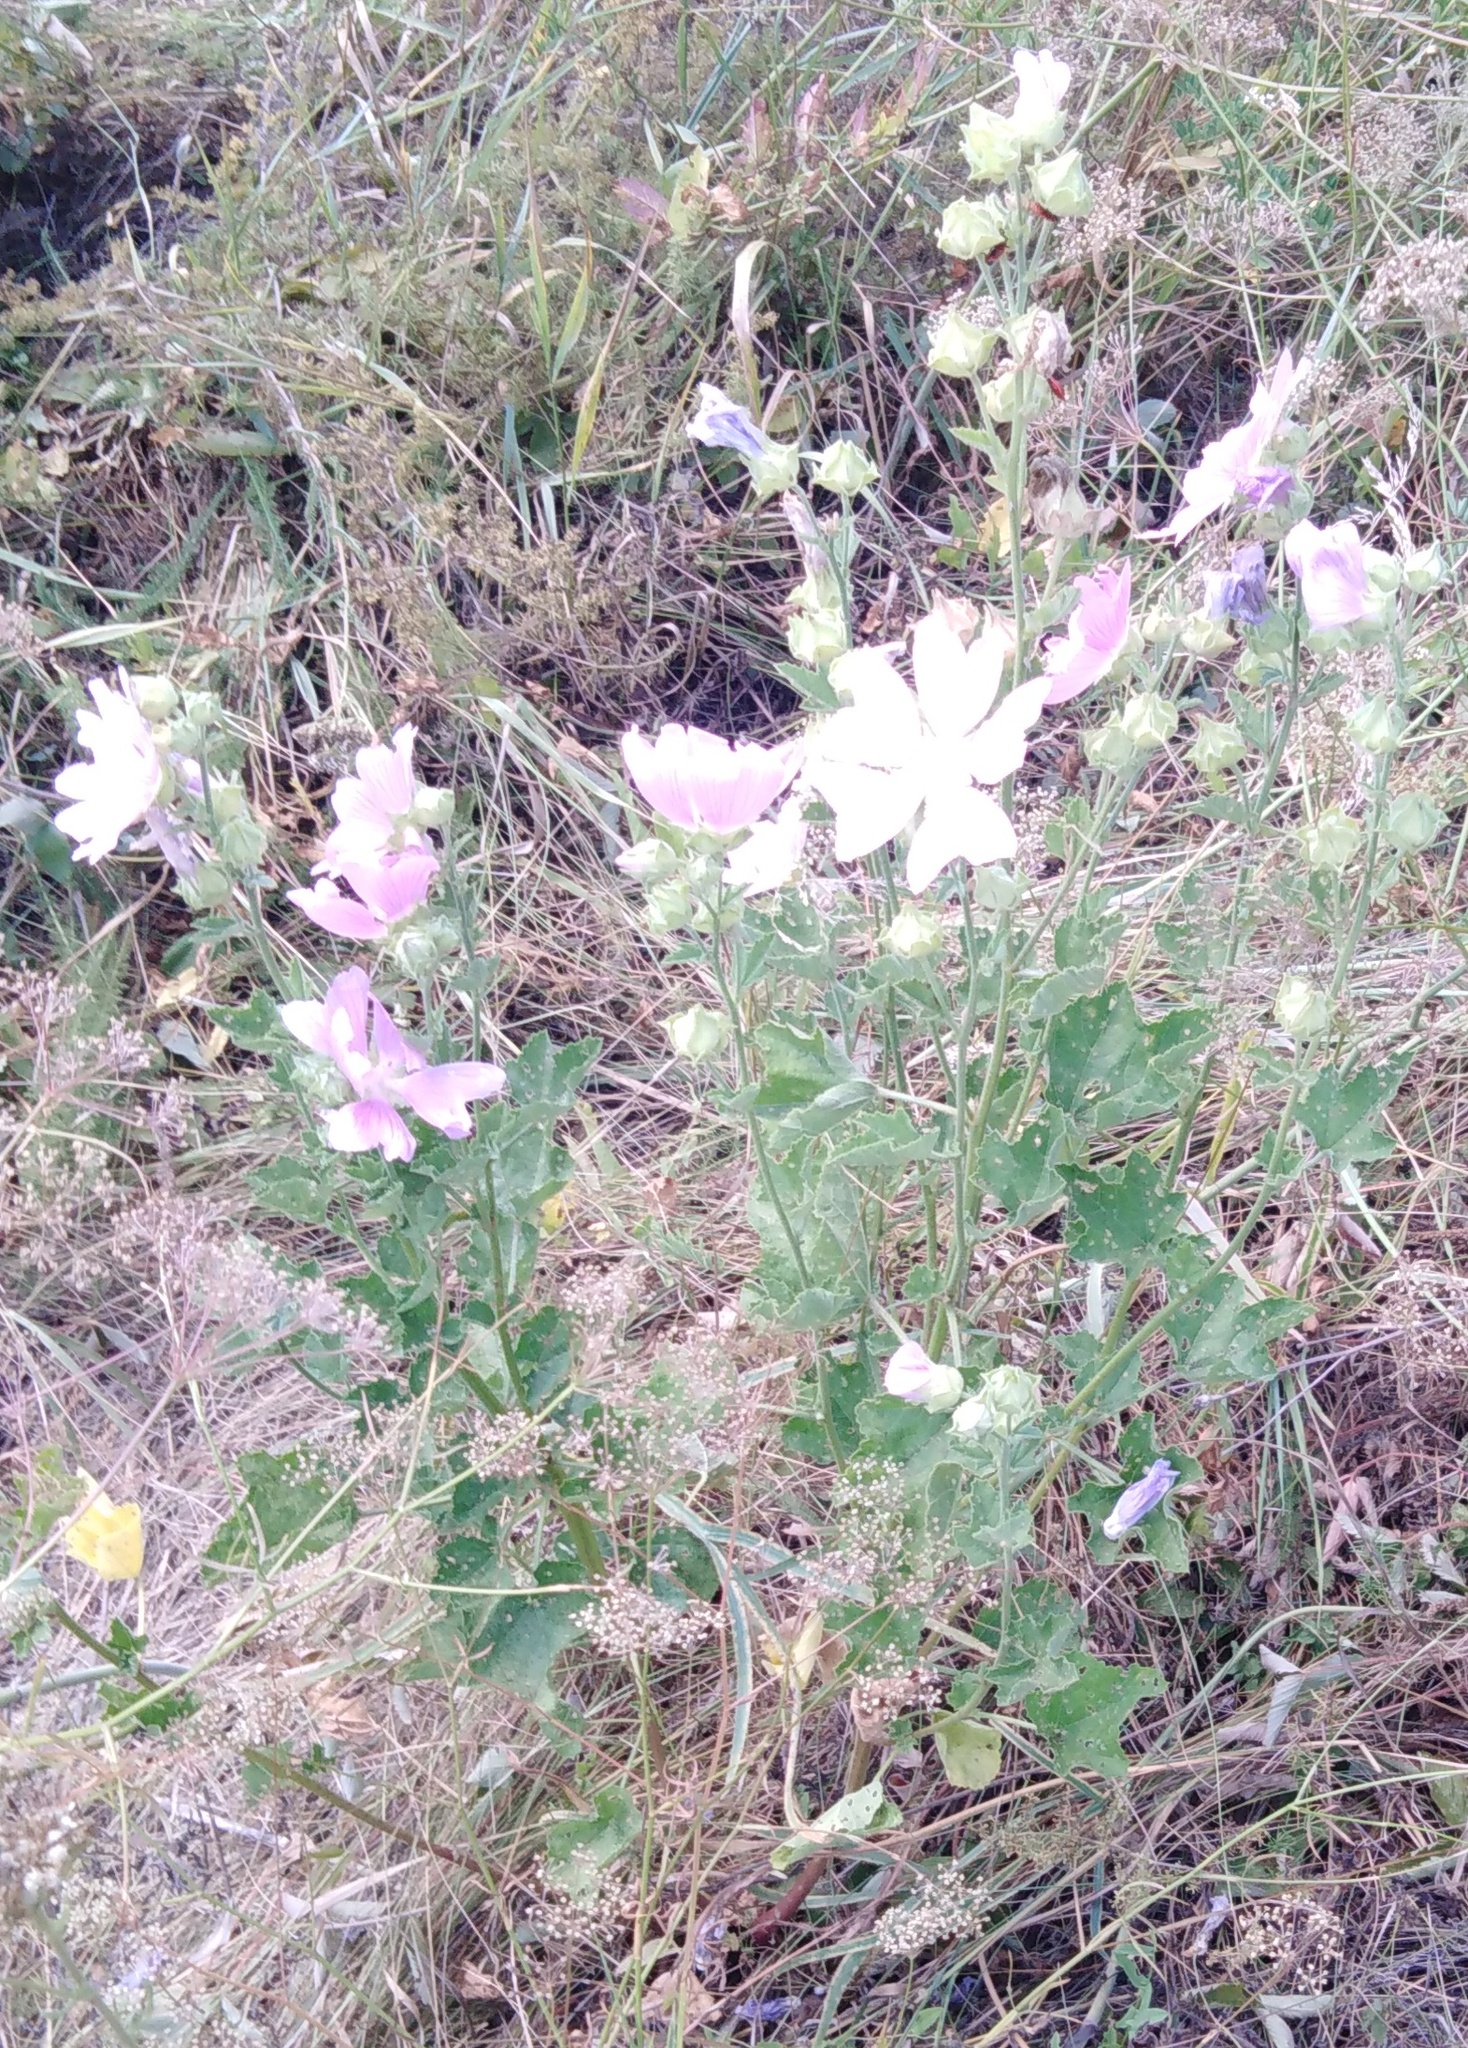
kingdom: Plantae
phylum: Tracheophyta
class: Magnoliopsida
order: Malvales
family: Malvaceae
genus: Malva
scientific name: Malva thuringiaca
